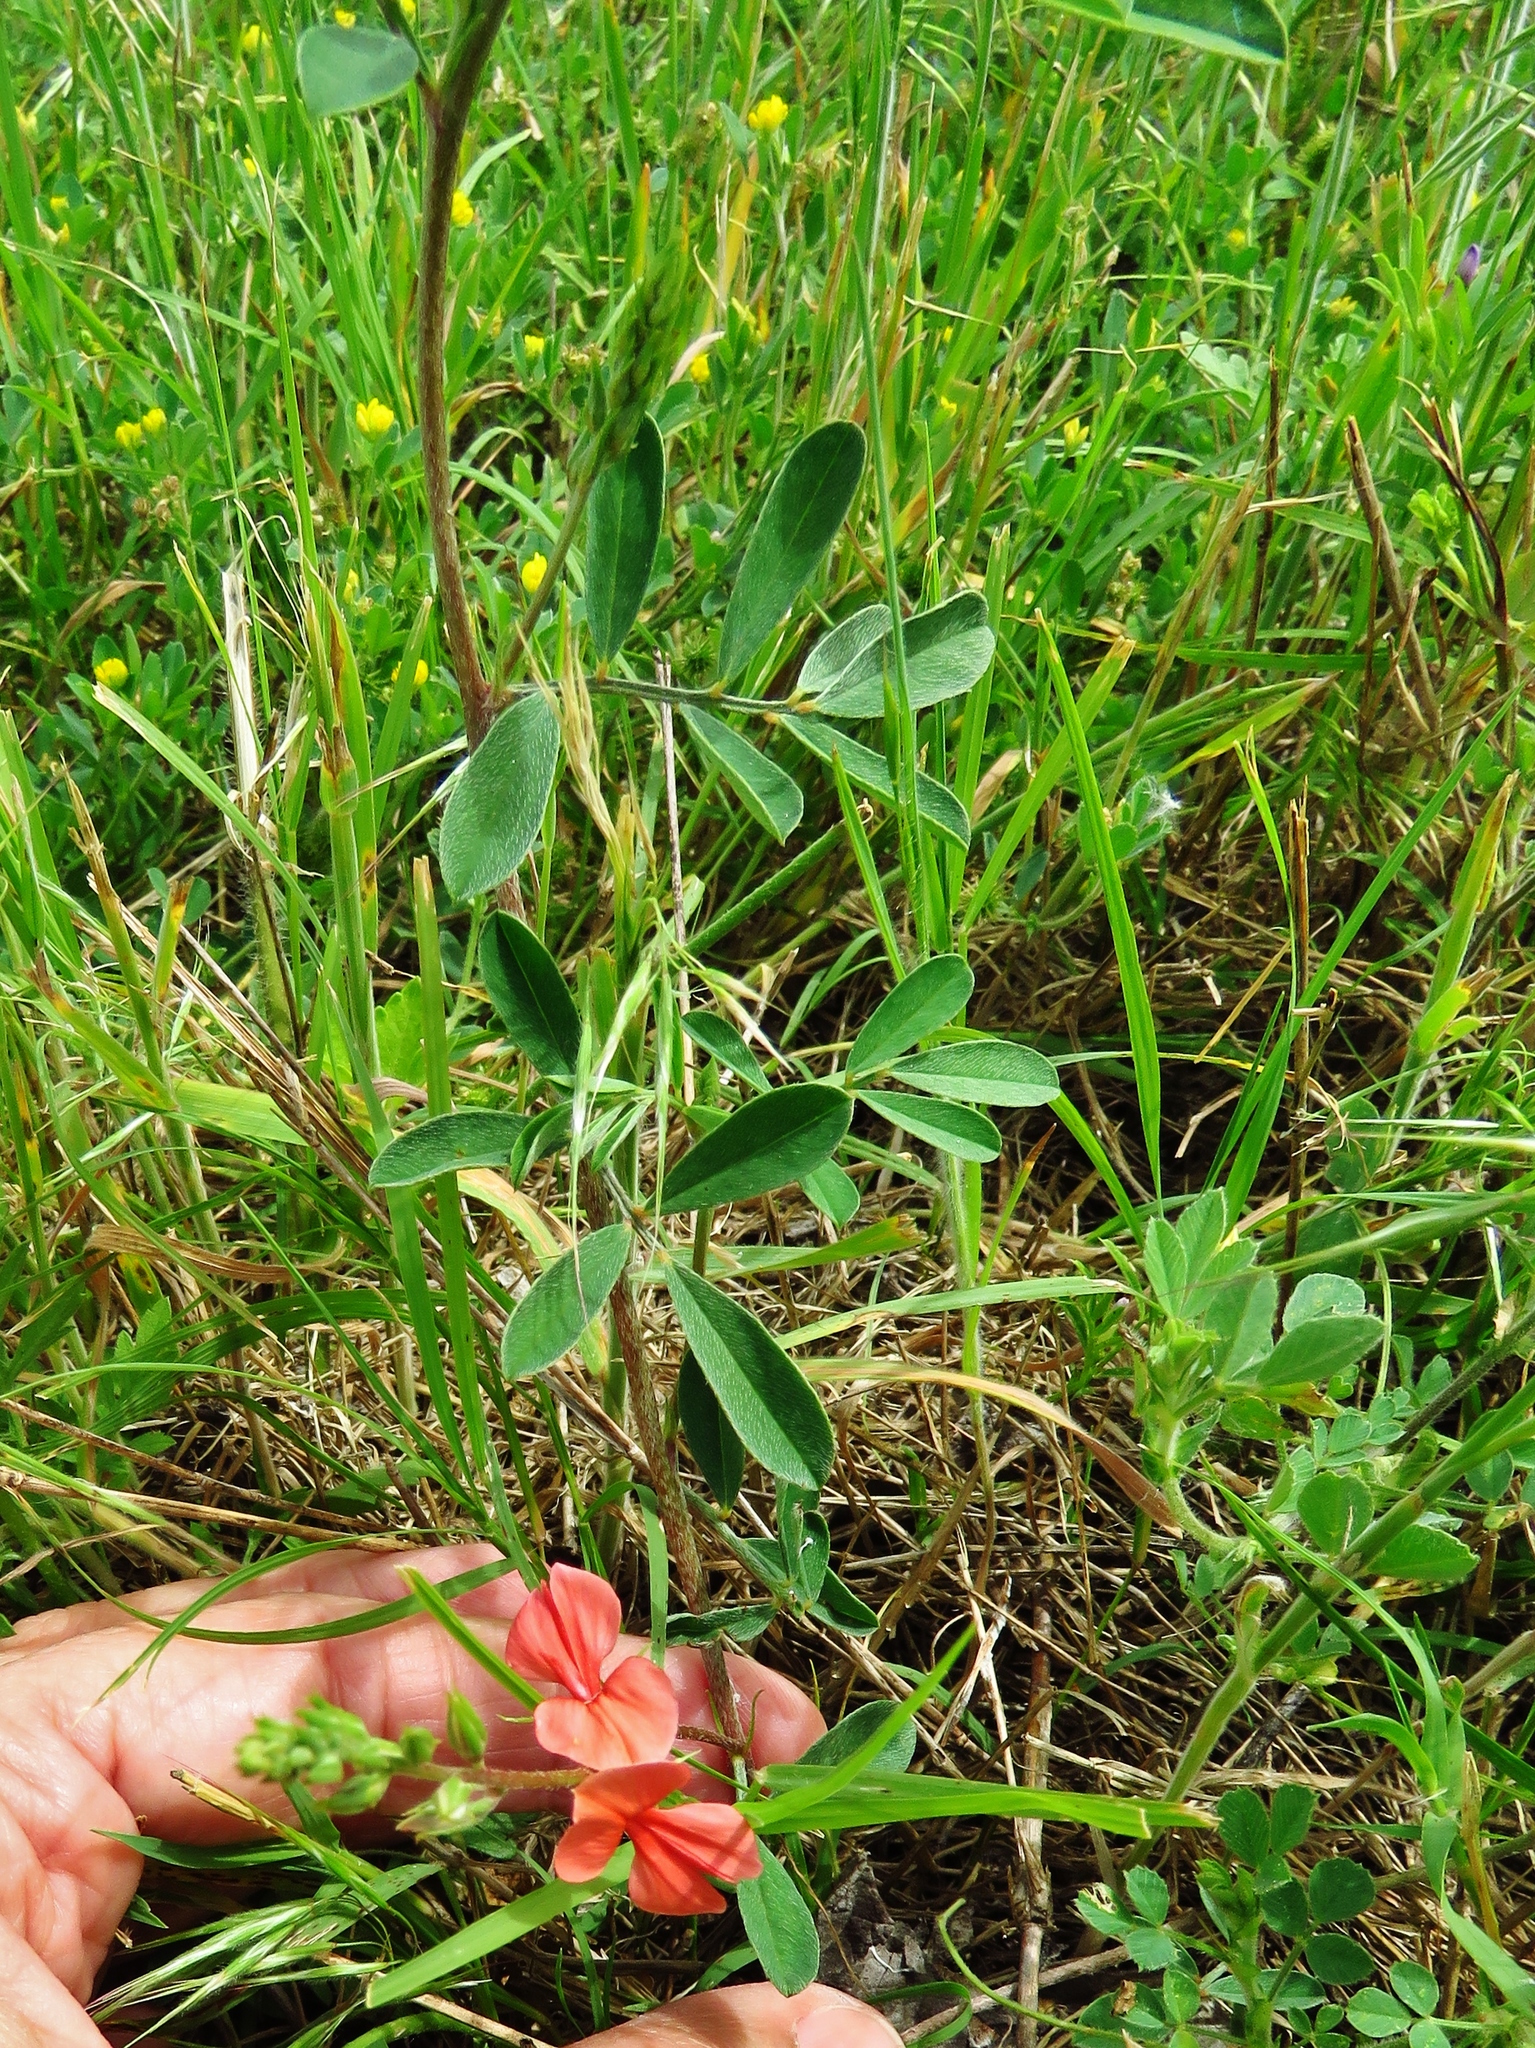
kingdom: Plantae
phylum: Tracheophyta
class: Magnoliopsida
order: Fabales
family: Fabaceae
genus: Indigofera
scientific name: Indigofera miniata
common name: Coast indigo
